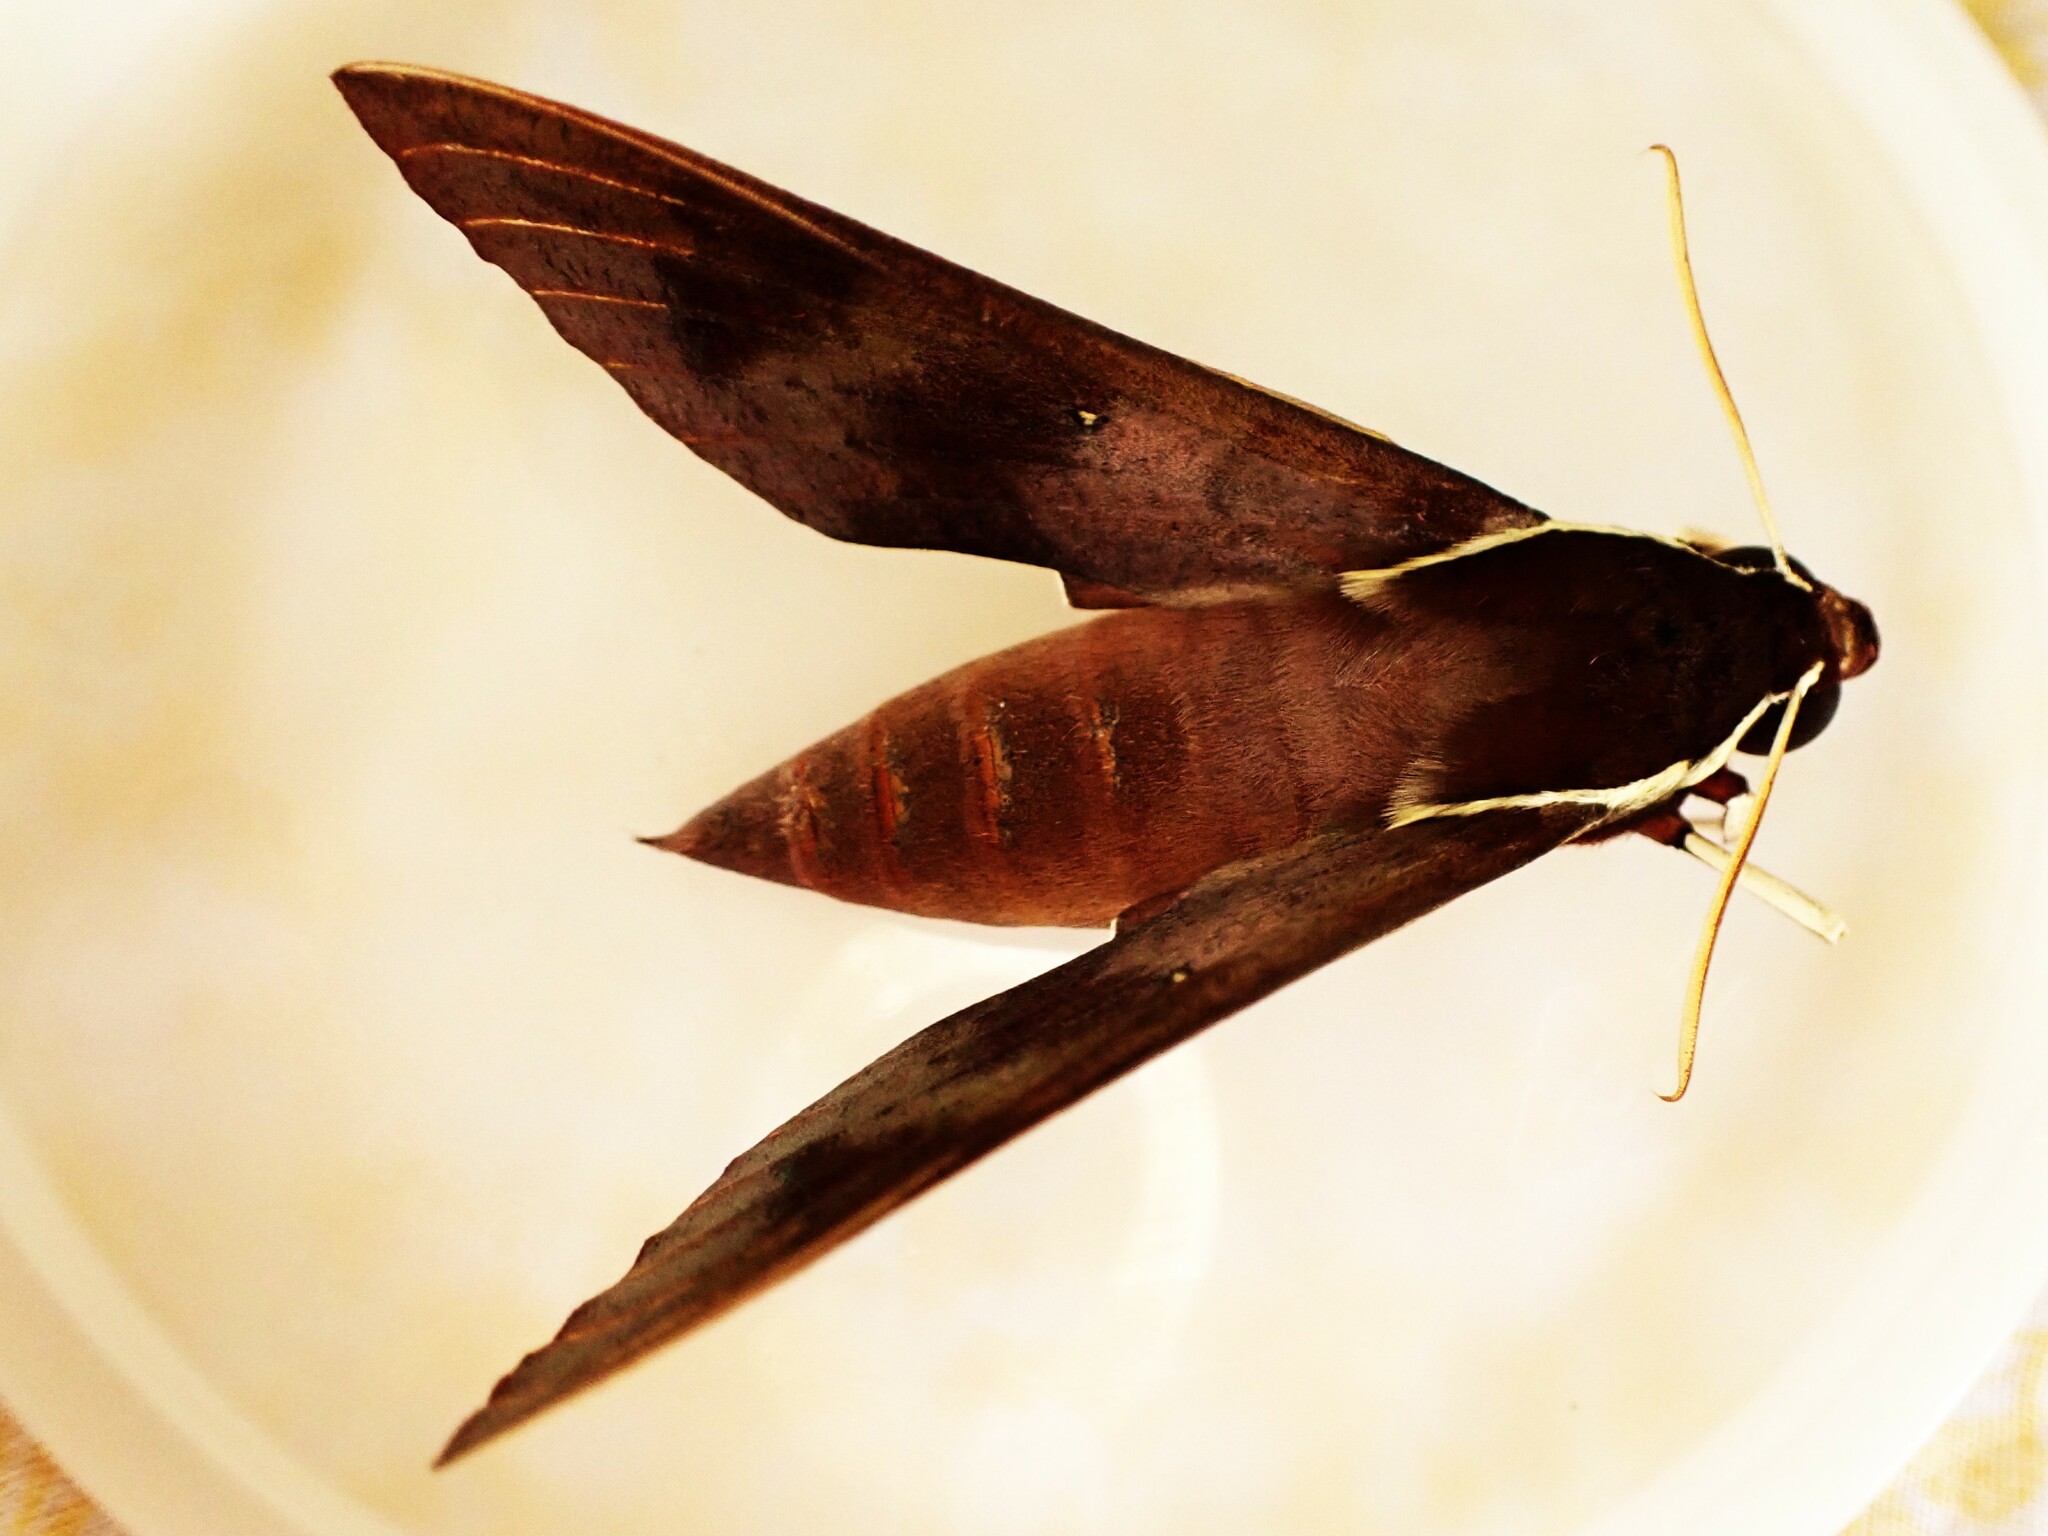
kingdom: Animalia
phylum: Arthropoda
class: Insecta
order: Lepidoptera
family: Sphingidae
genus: Gnathothlibus
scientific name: Gnathothlibus eras
